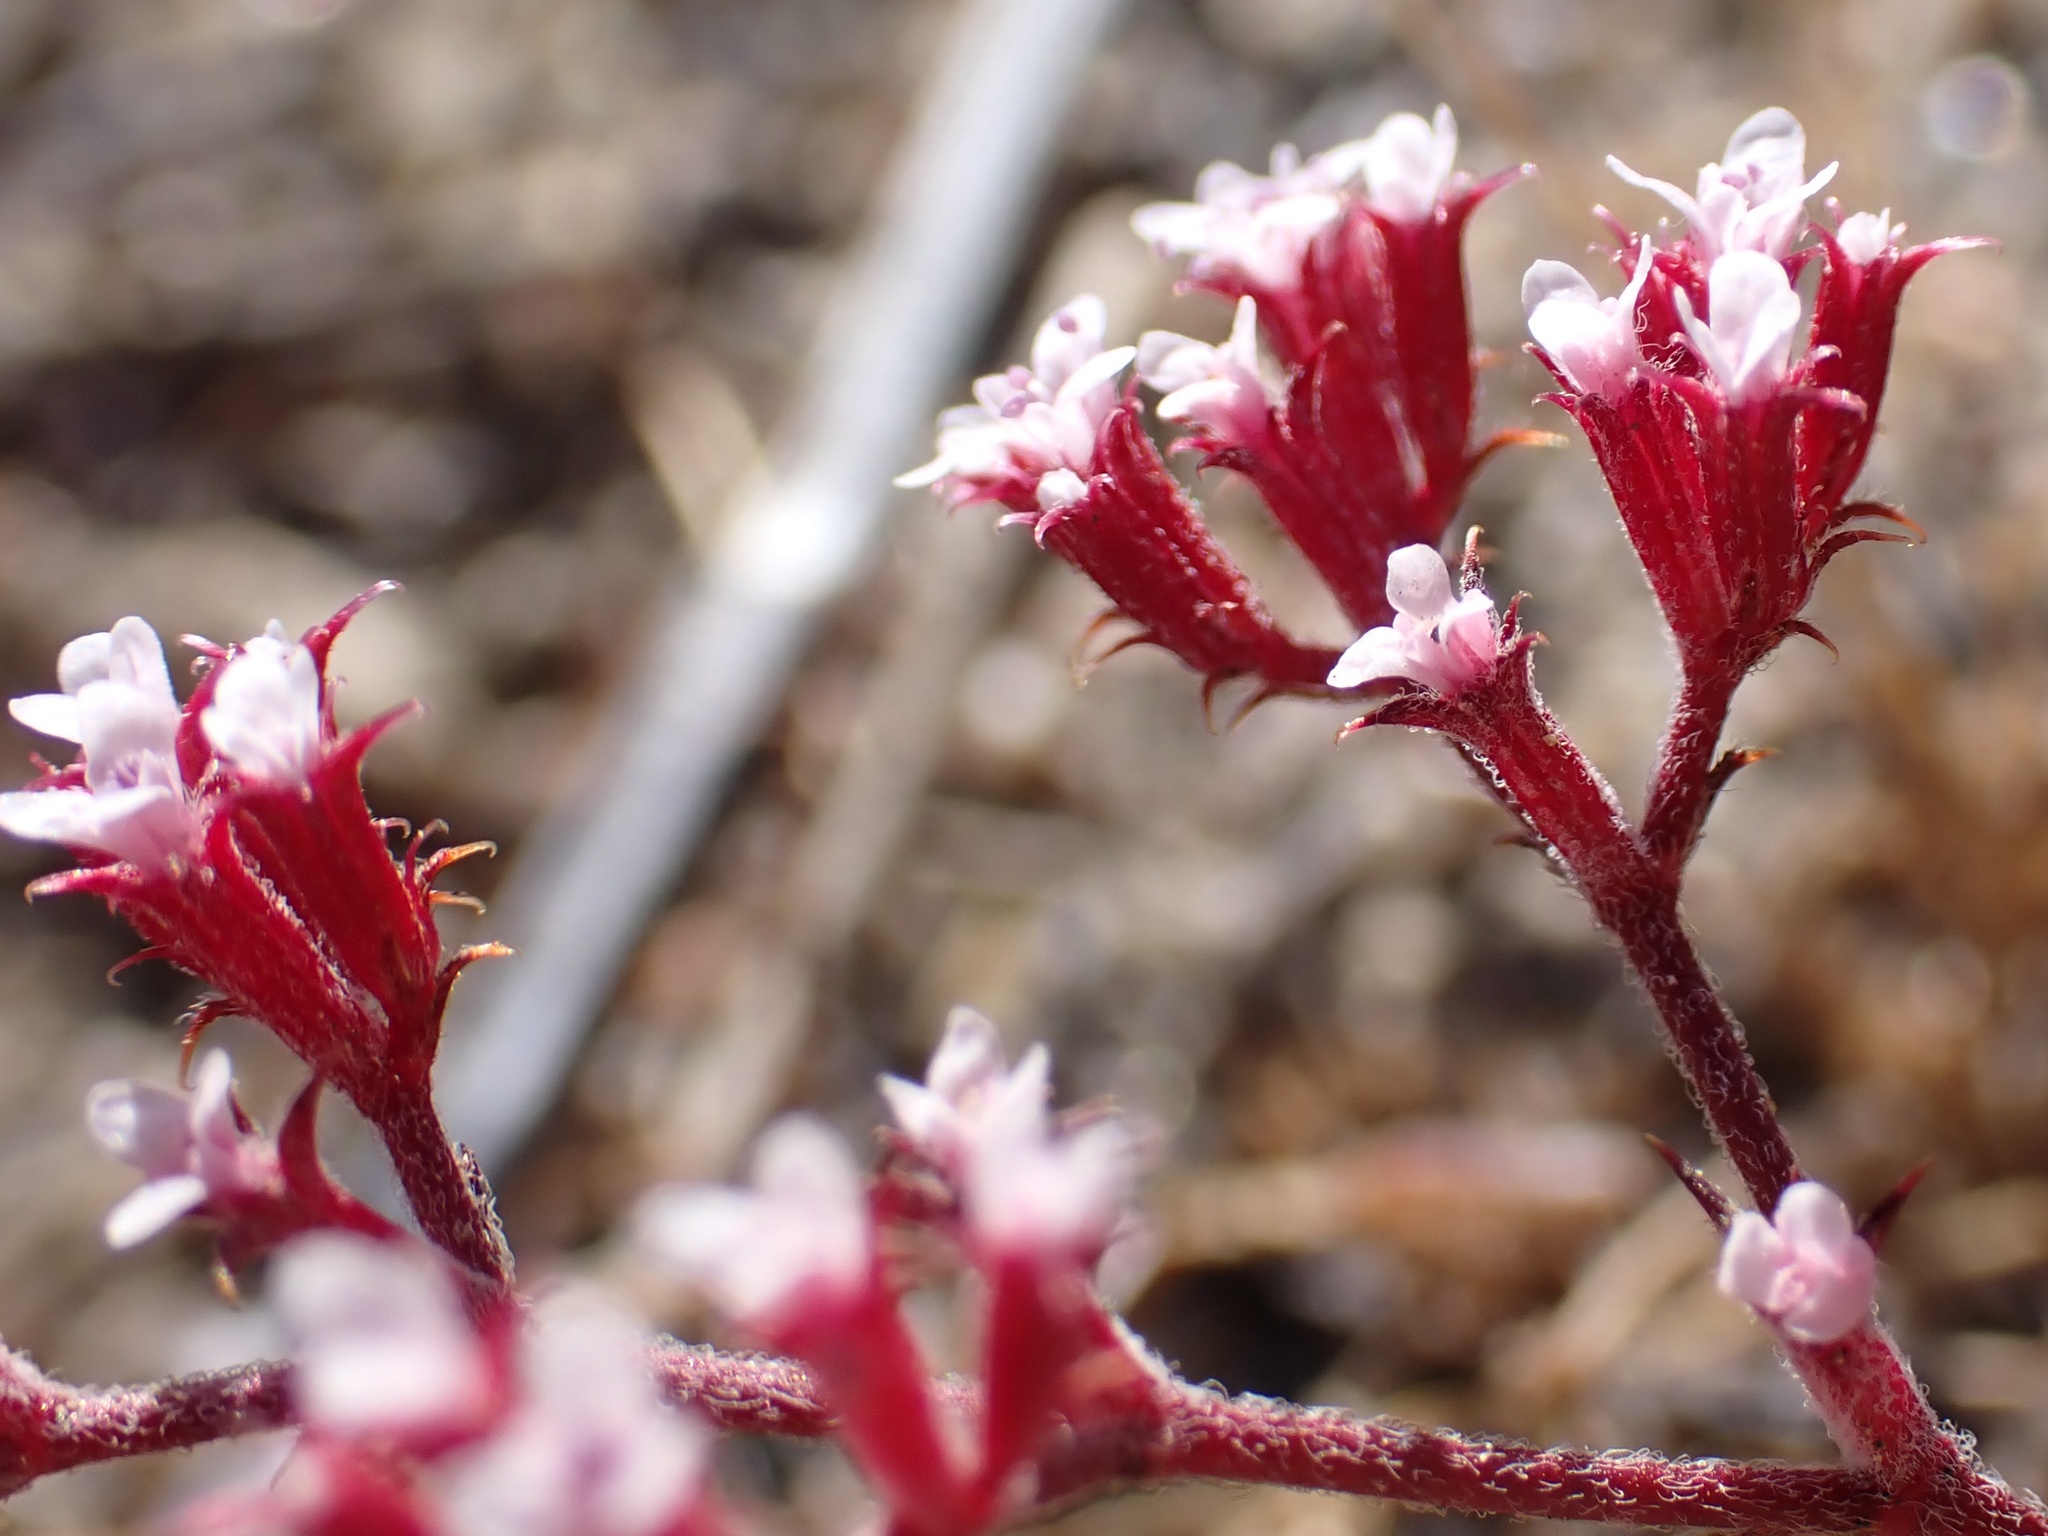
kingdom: Plantae
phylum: Tracheophyta
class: Magnoliopsida
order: Caryophyllales
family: Polygonaceae
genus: Chorizanthe
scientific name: Chorizanthe leptotheca
